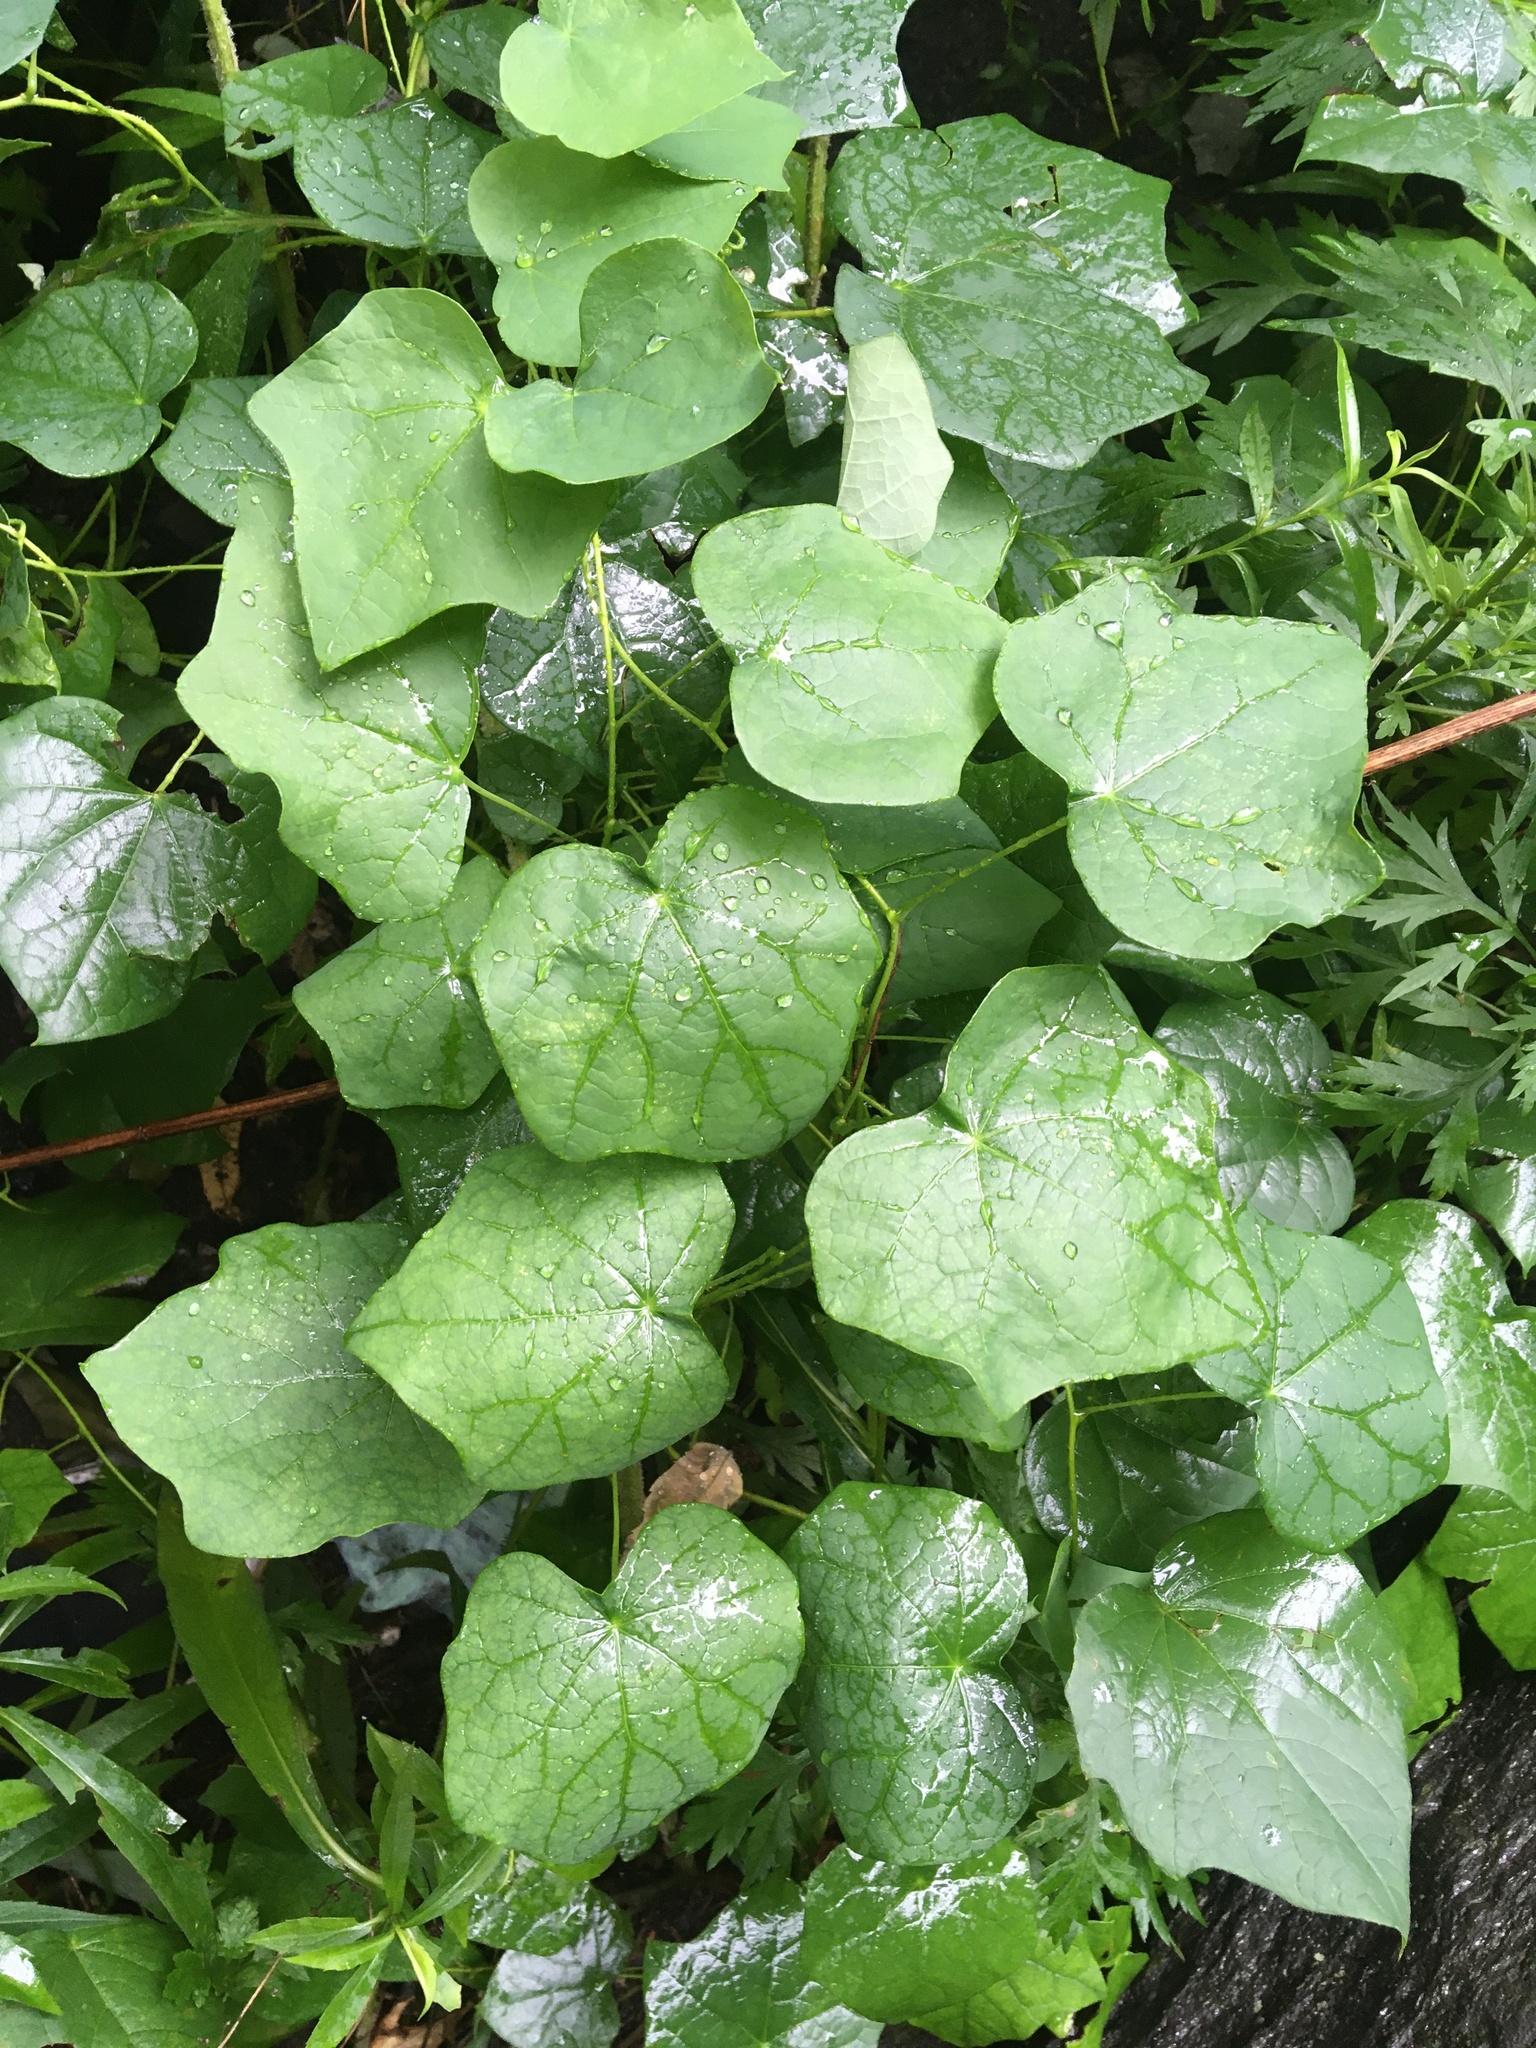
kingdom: Plantae
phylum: Tracheophyta
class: Magnoliopsida
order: Ranunculales
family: Menispermaceae
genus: Menispermum
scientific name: Menispermum canadense
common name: Moonseed
